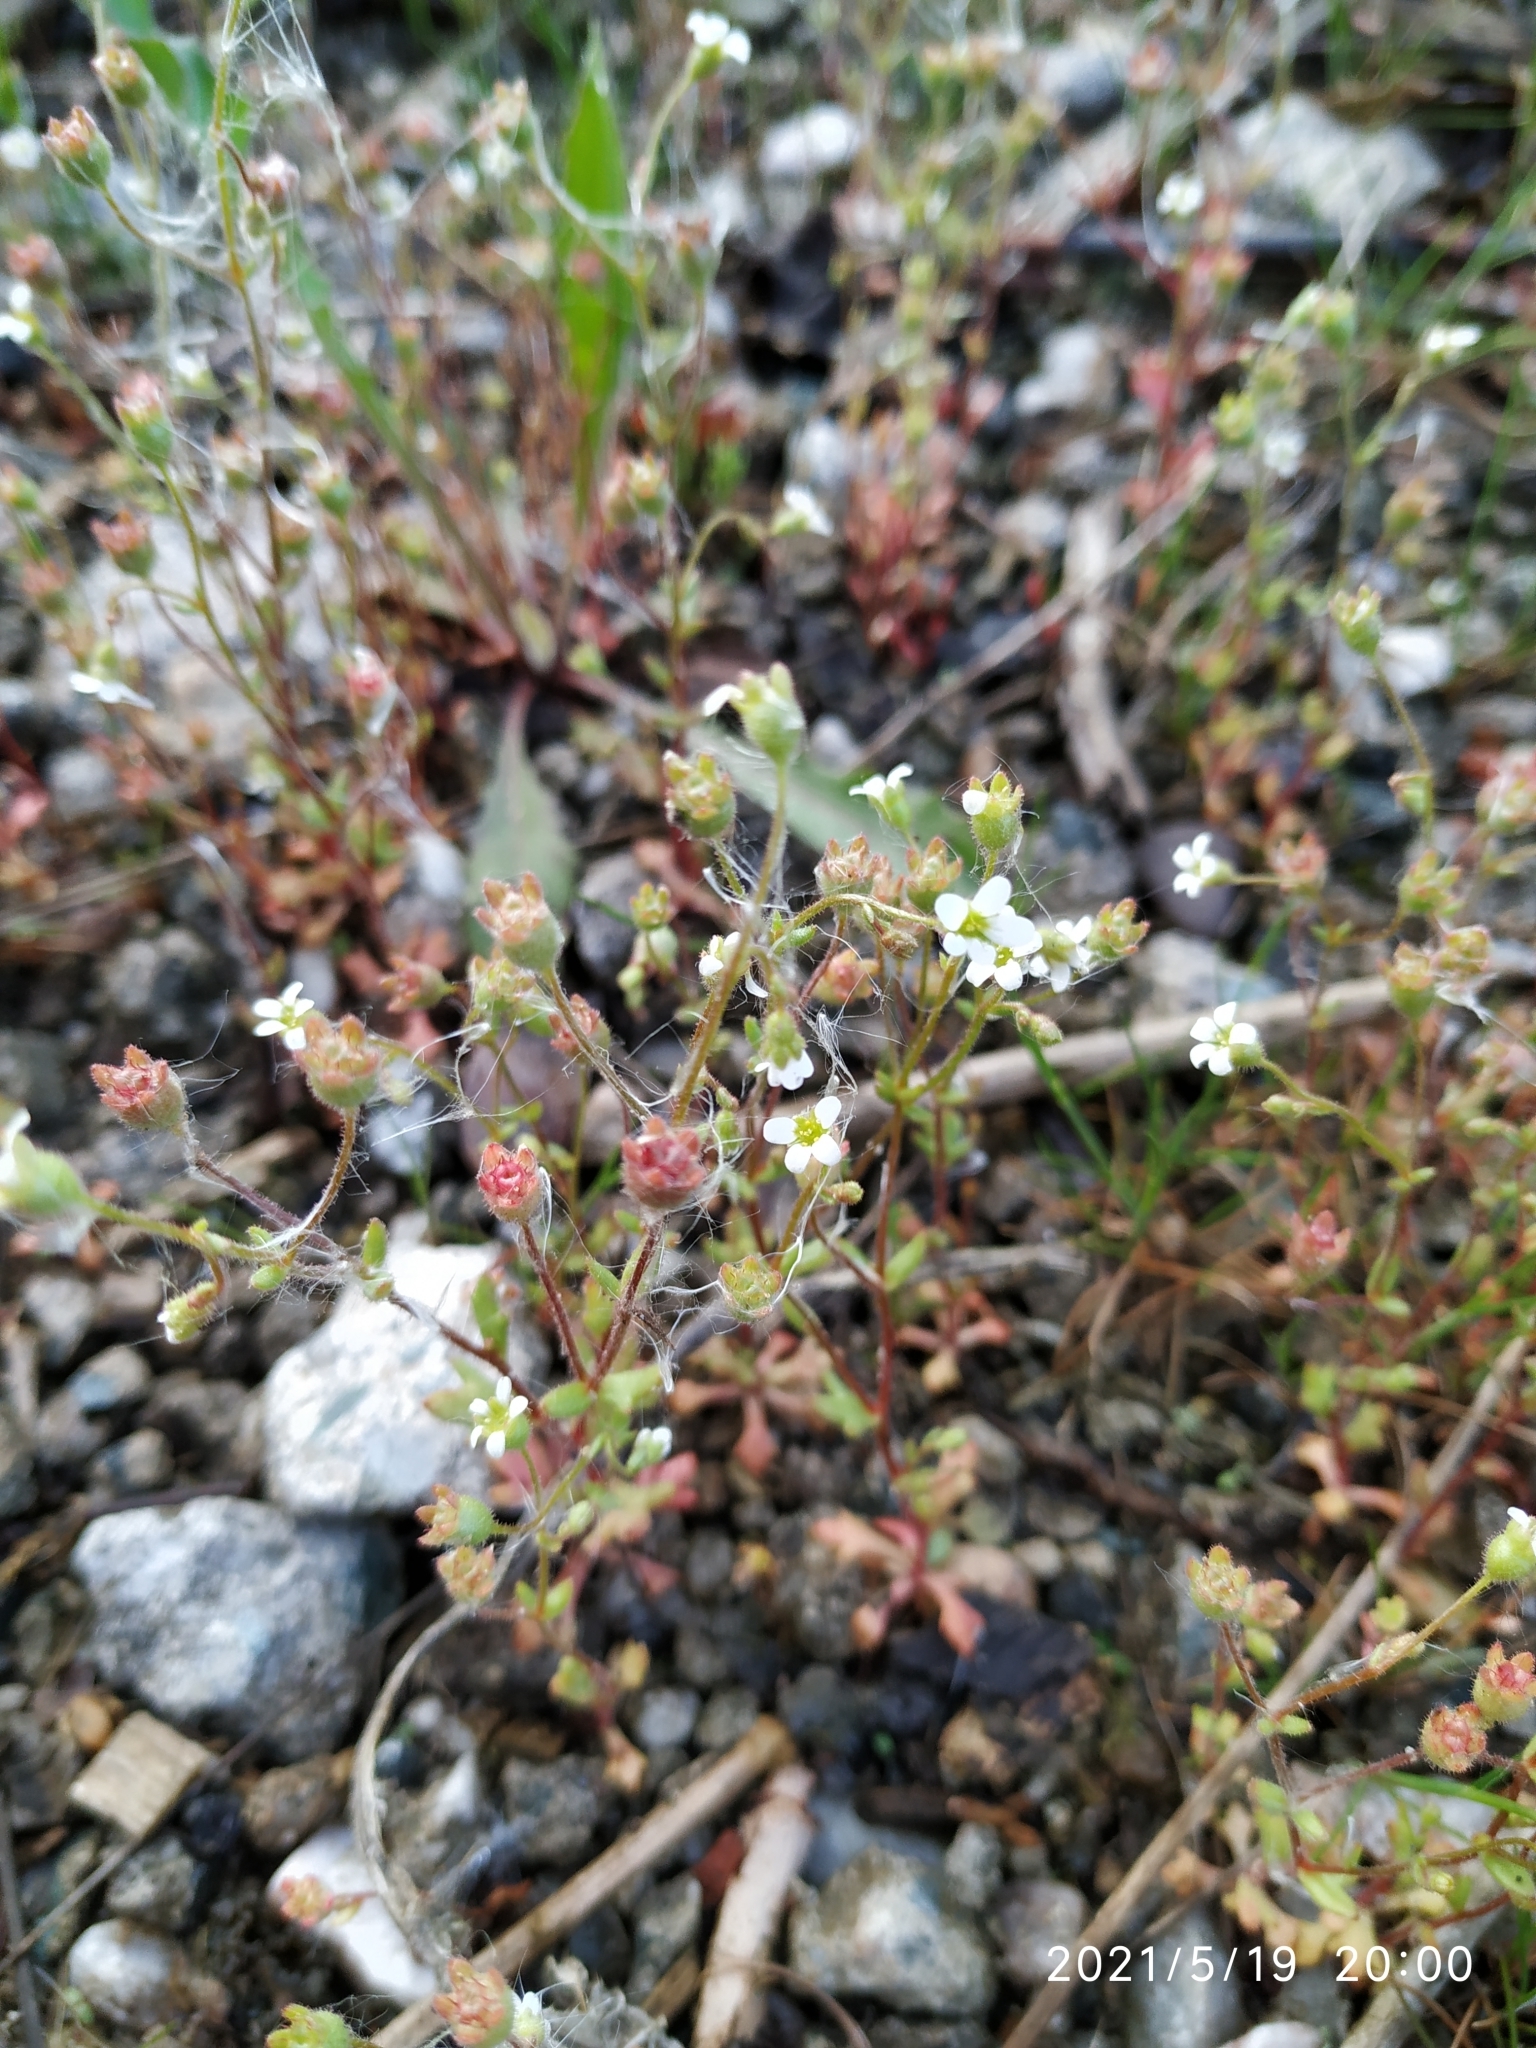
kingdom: Plantae
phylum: Tracheophyta
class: Magnoliopsida
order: Saxifragales
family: Saxifragaceae
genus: Saxifraga
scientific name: Saxifraga tridactylites
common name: Rue-leaved saxifrage
